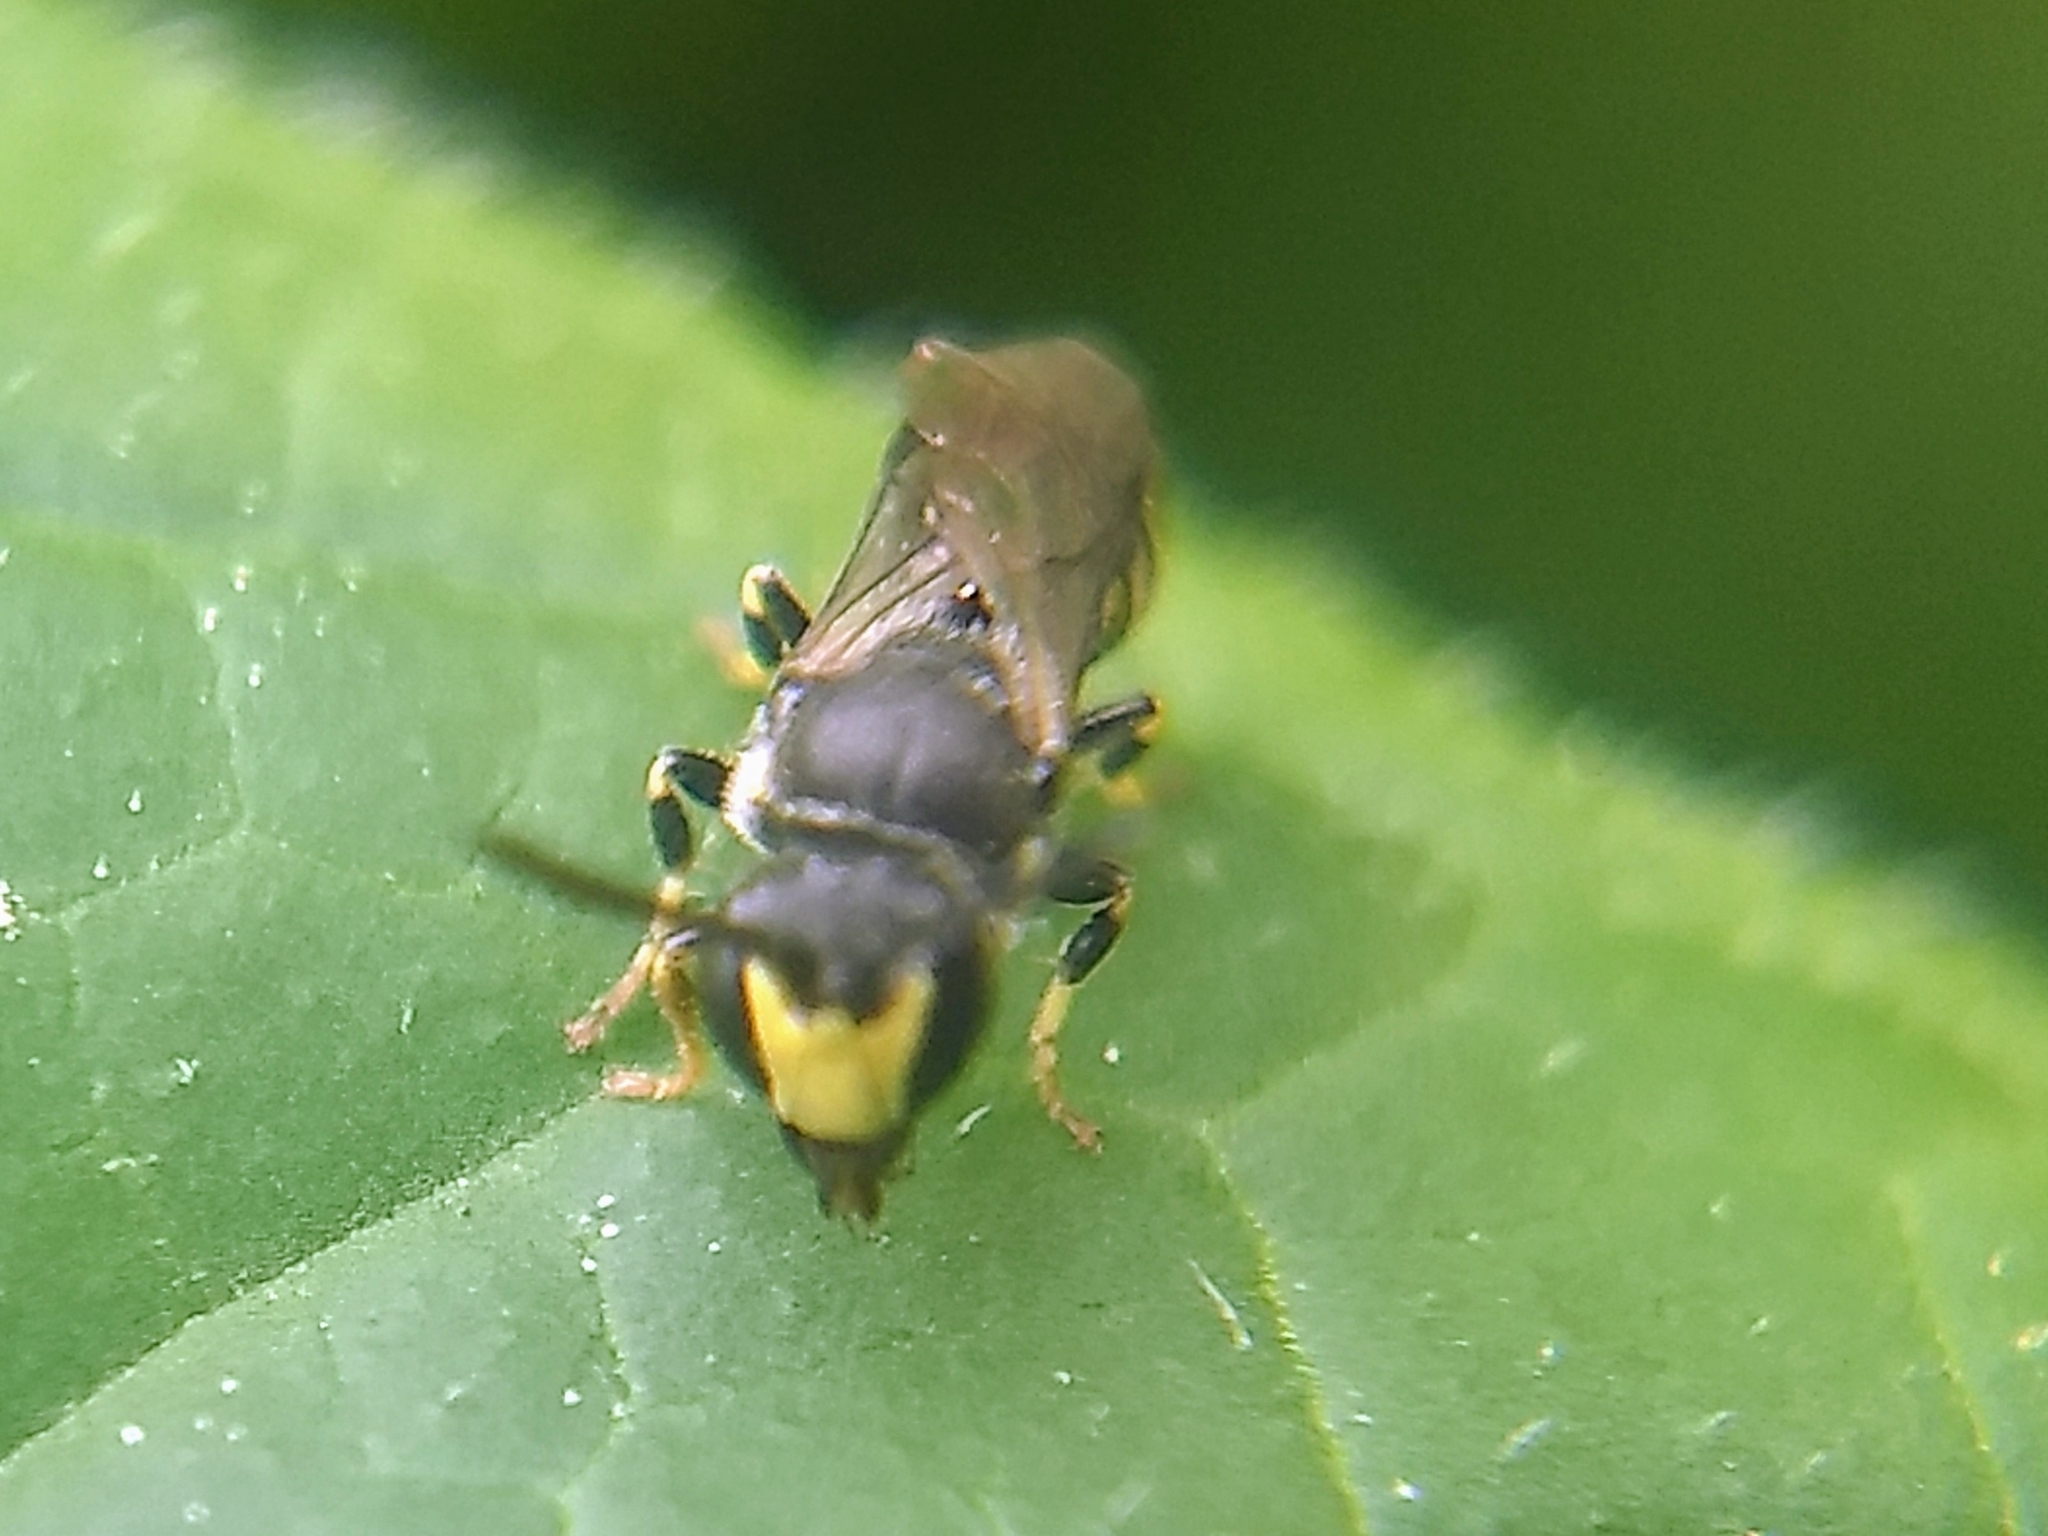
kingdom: Animalia
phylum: Arthropoda
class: Insecta
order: Hymenoptera
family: Colletidae
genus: Hylaeus
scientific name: Hylaeus modestus
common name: Yellow-faced bee
